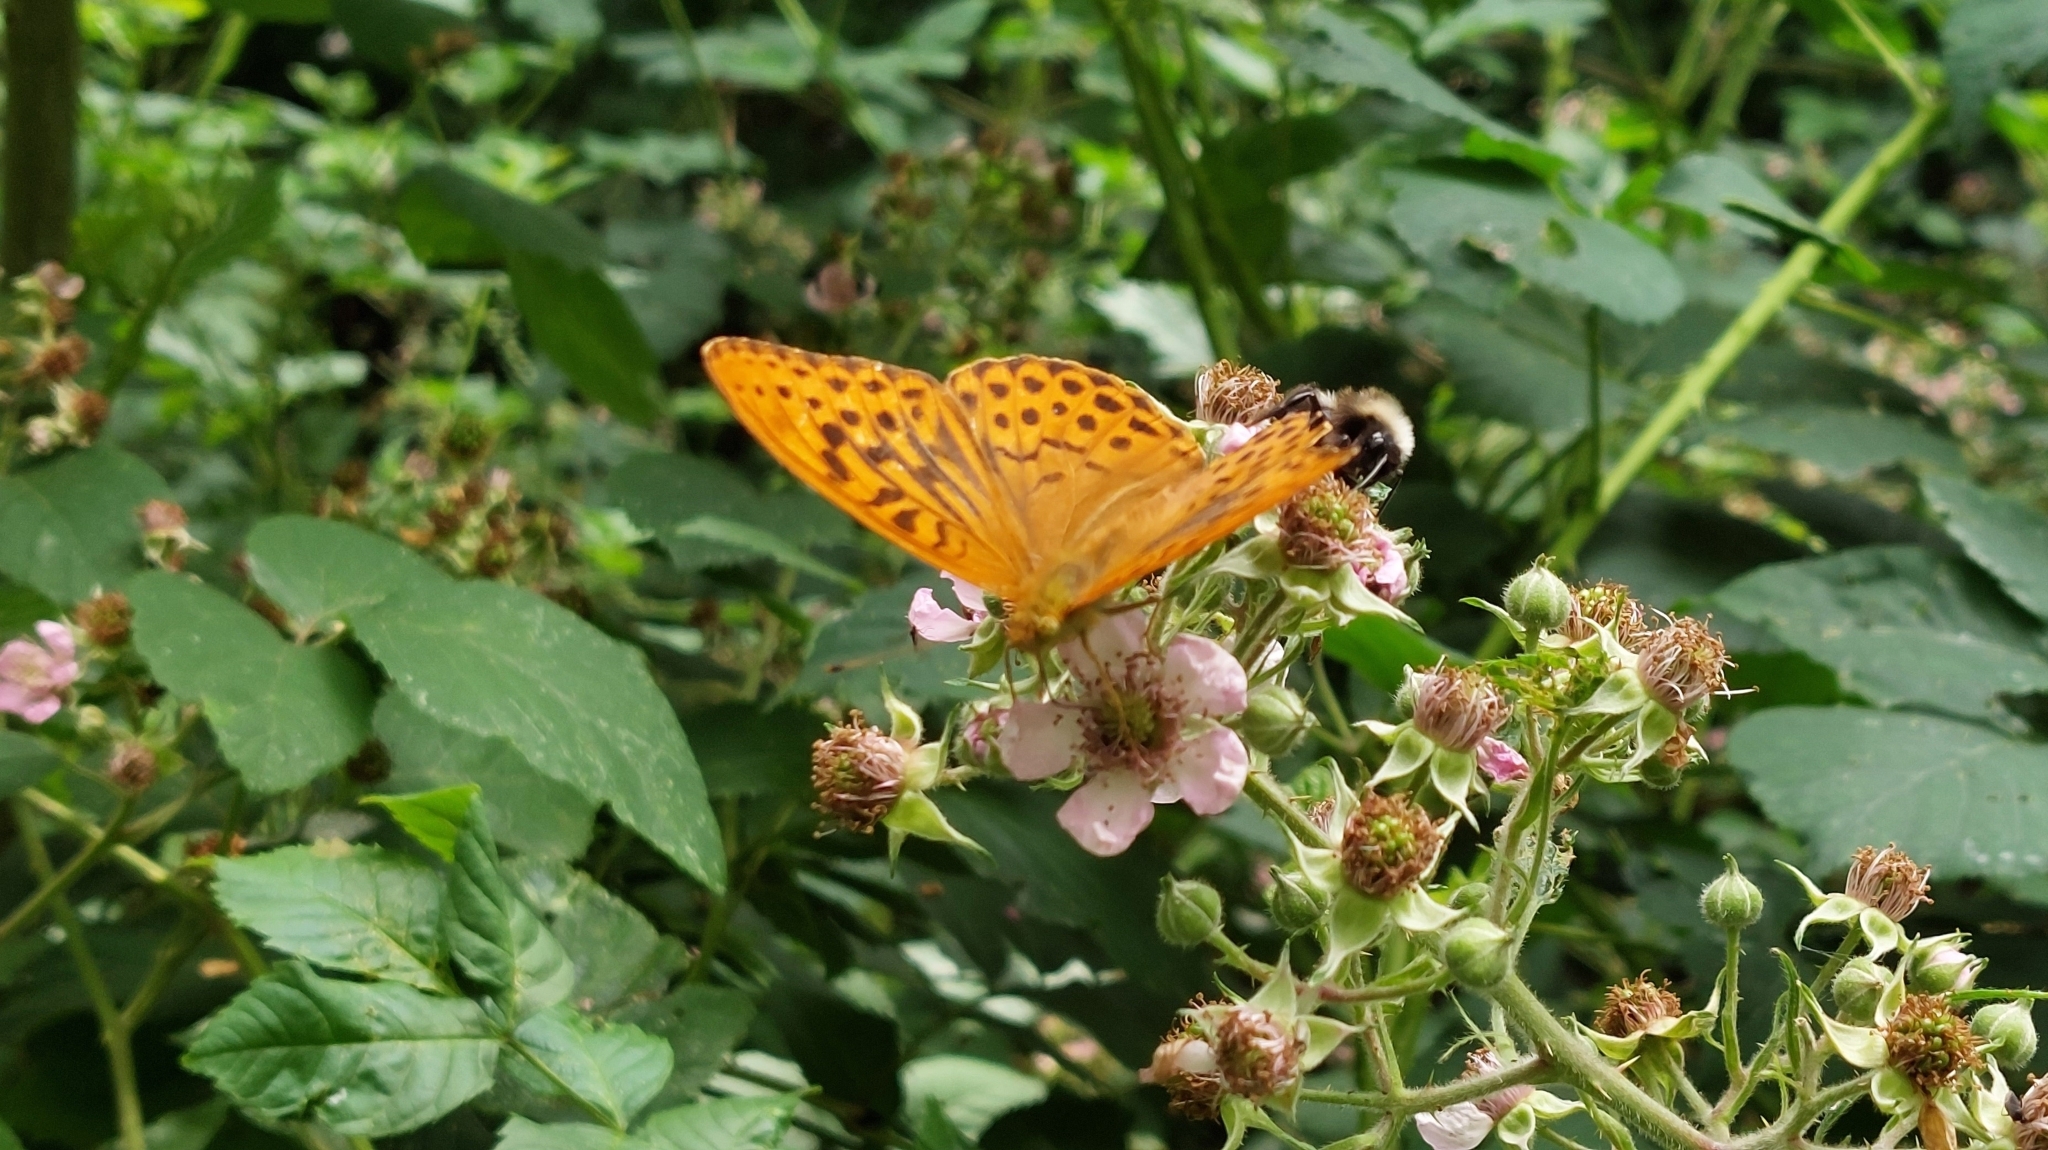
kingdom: Animalia
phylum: Arthropoda
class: Insecta
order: Lepidoptera
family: Nymphalidae
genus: Argynnis
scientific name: Argynnis paphia
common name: Silver-washed fritillary
